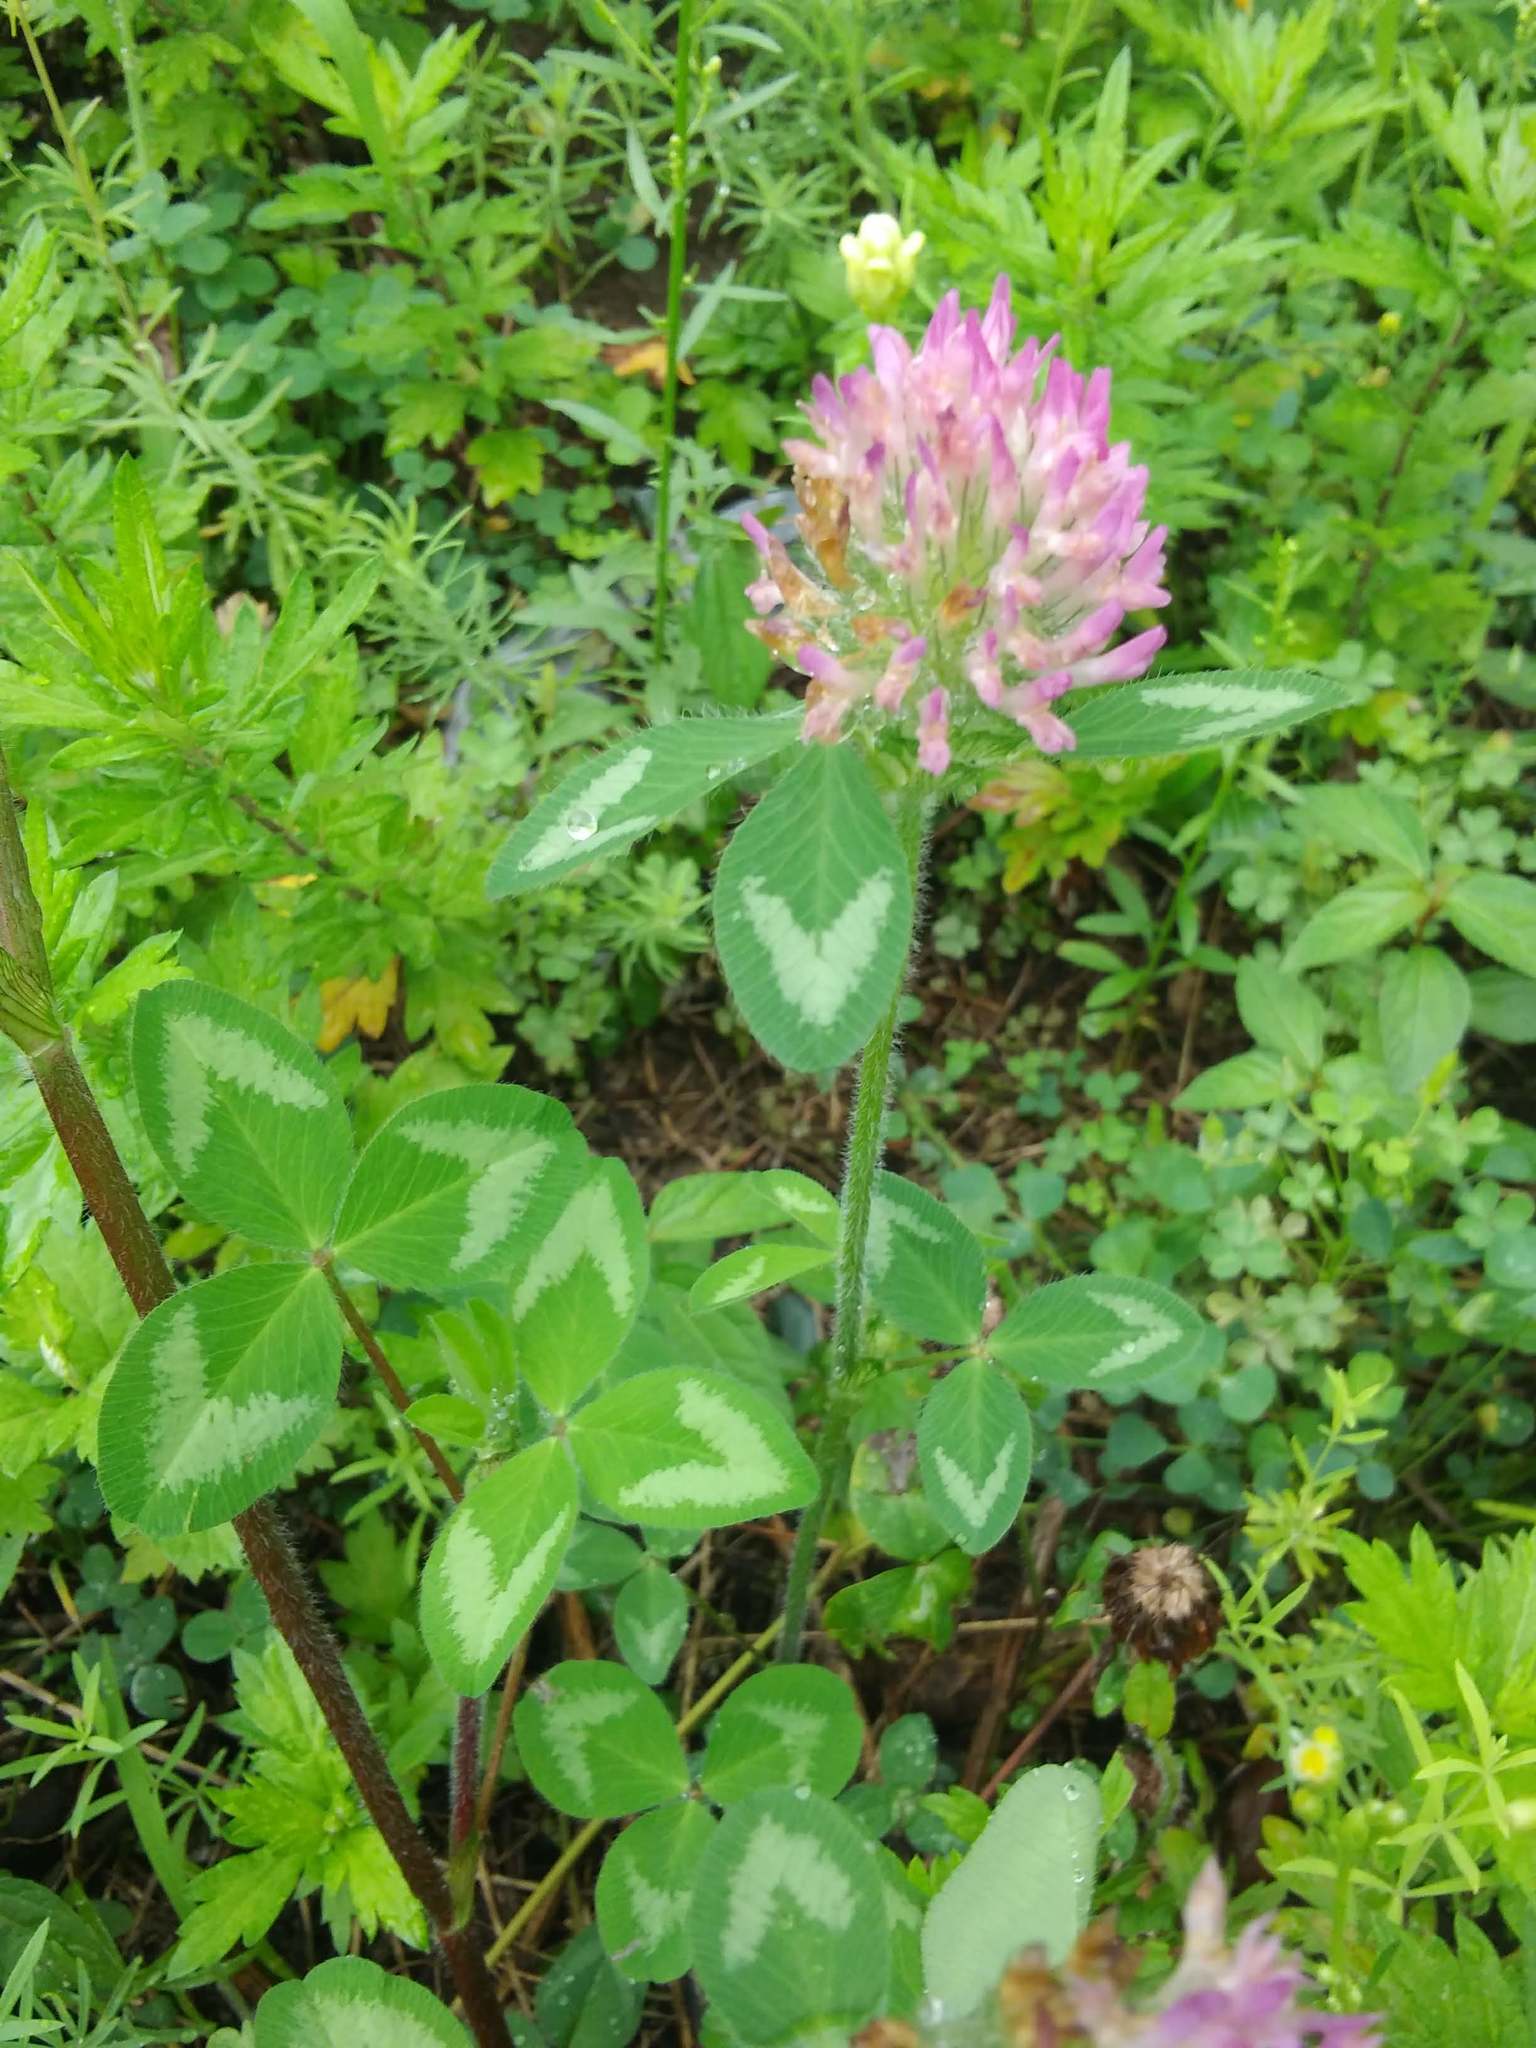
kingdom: Plantae
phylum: Tracheophyta
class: Magnoliopsida
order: Fabales
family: Fabaceae
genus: Trifolium
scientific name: Trifolium pratense
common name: Red clover
